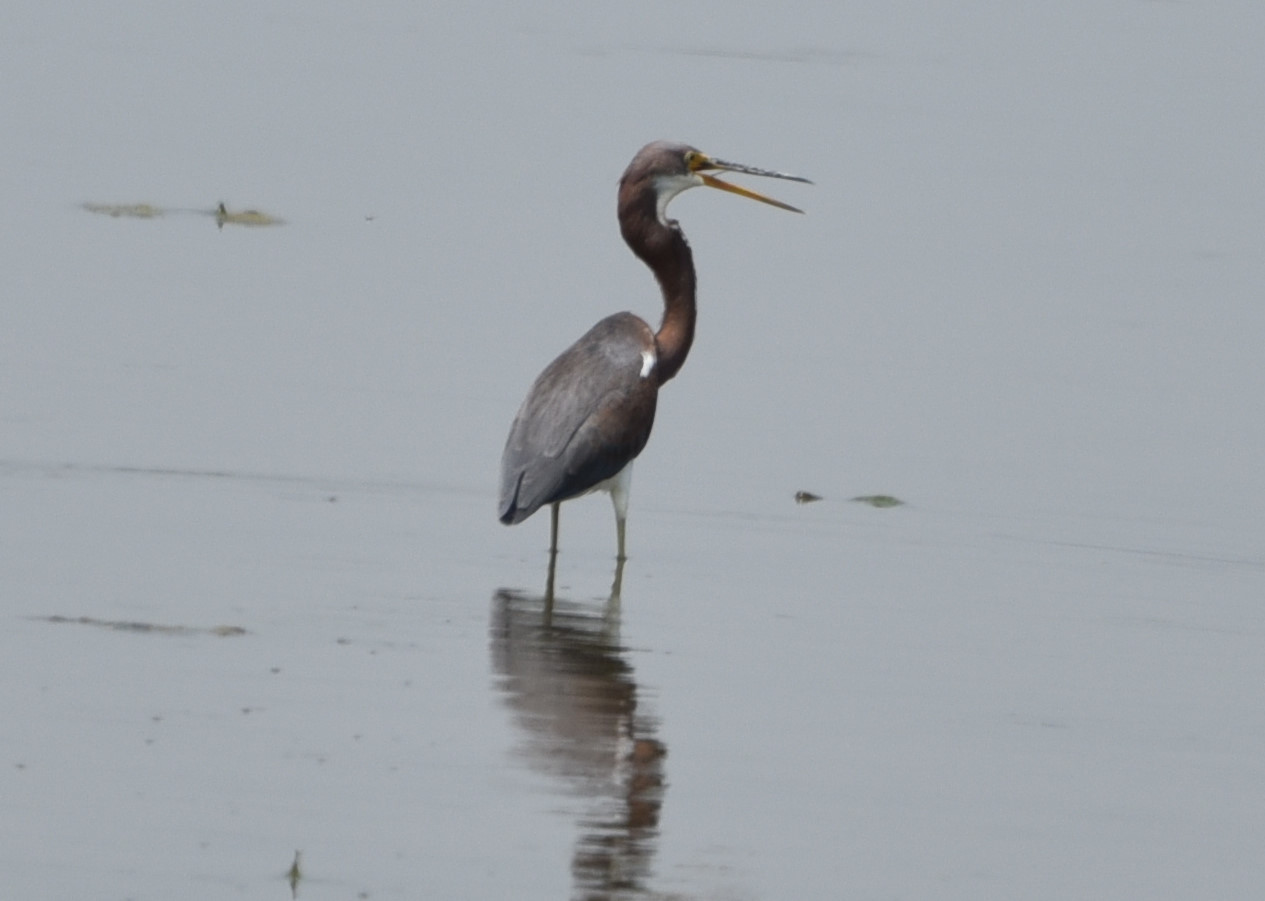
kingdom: Animalia
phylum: Chordata
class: Aves
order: Pelecaniformes
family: Ardeidae
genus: Egretta
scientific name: Egretta tricolor
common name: Tricolored heron
